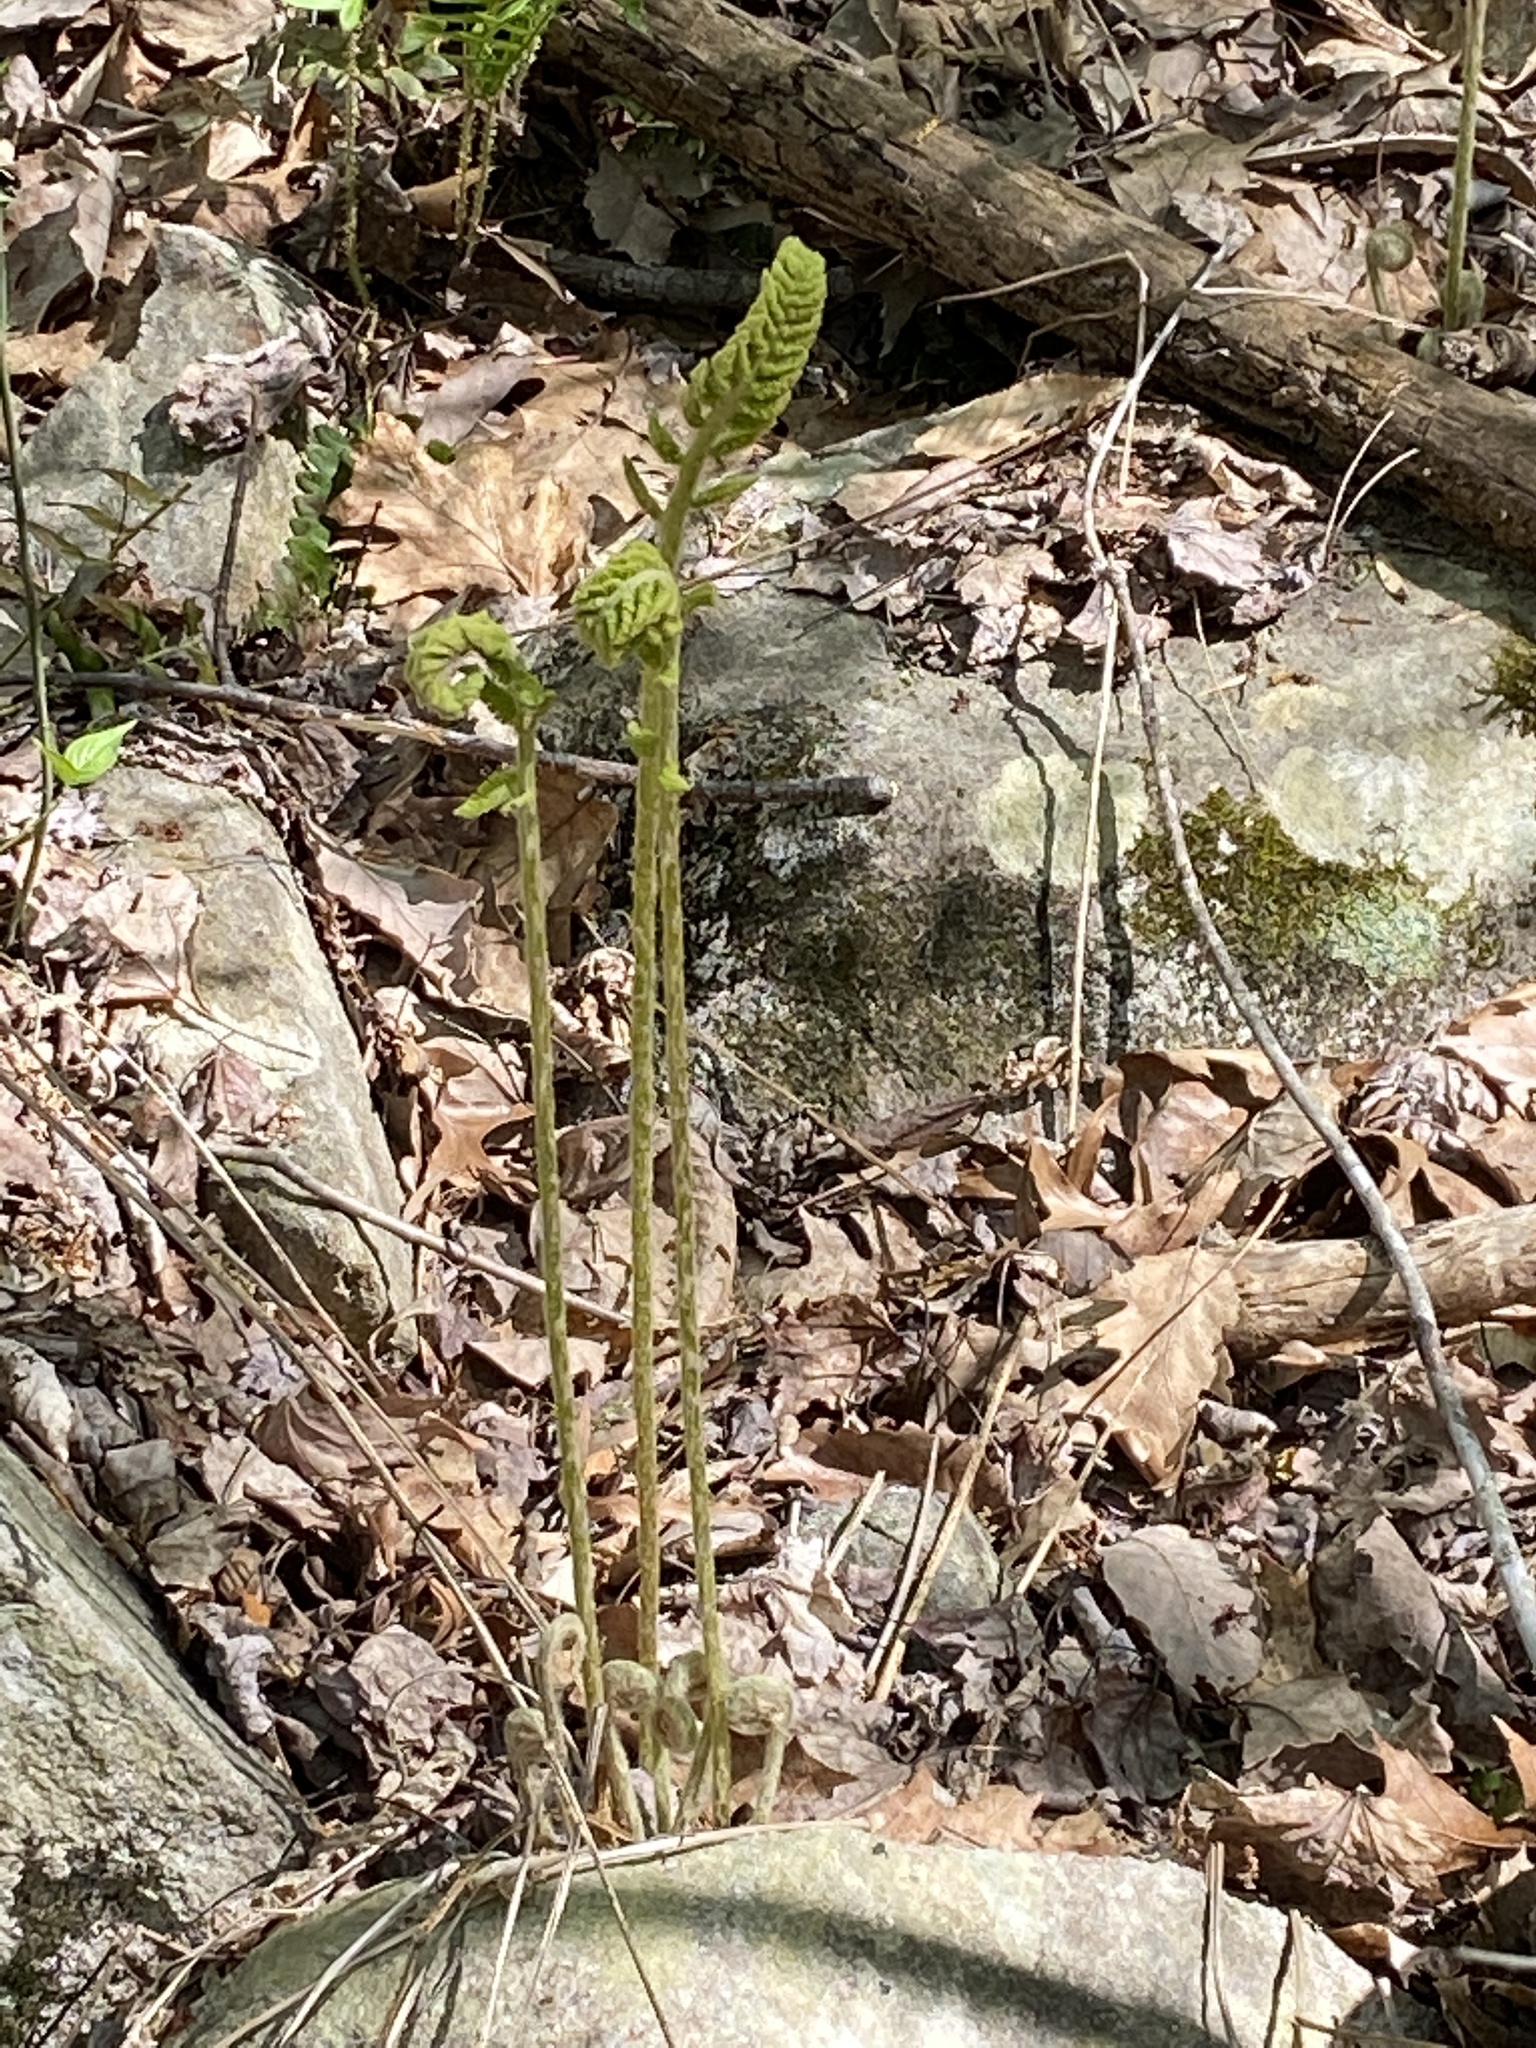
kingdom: Plantae
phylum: Tracheophyta
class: Polypodiopsida
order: Osmundales
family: Osmundaceae
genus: Osmundastrum
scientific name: Osmundastrum cinnamomeum
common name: Cinnamon fern
